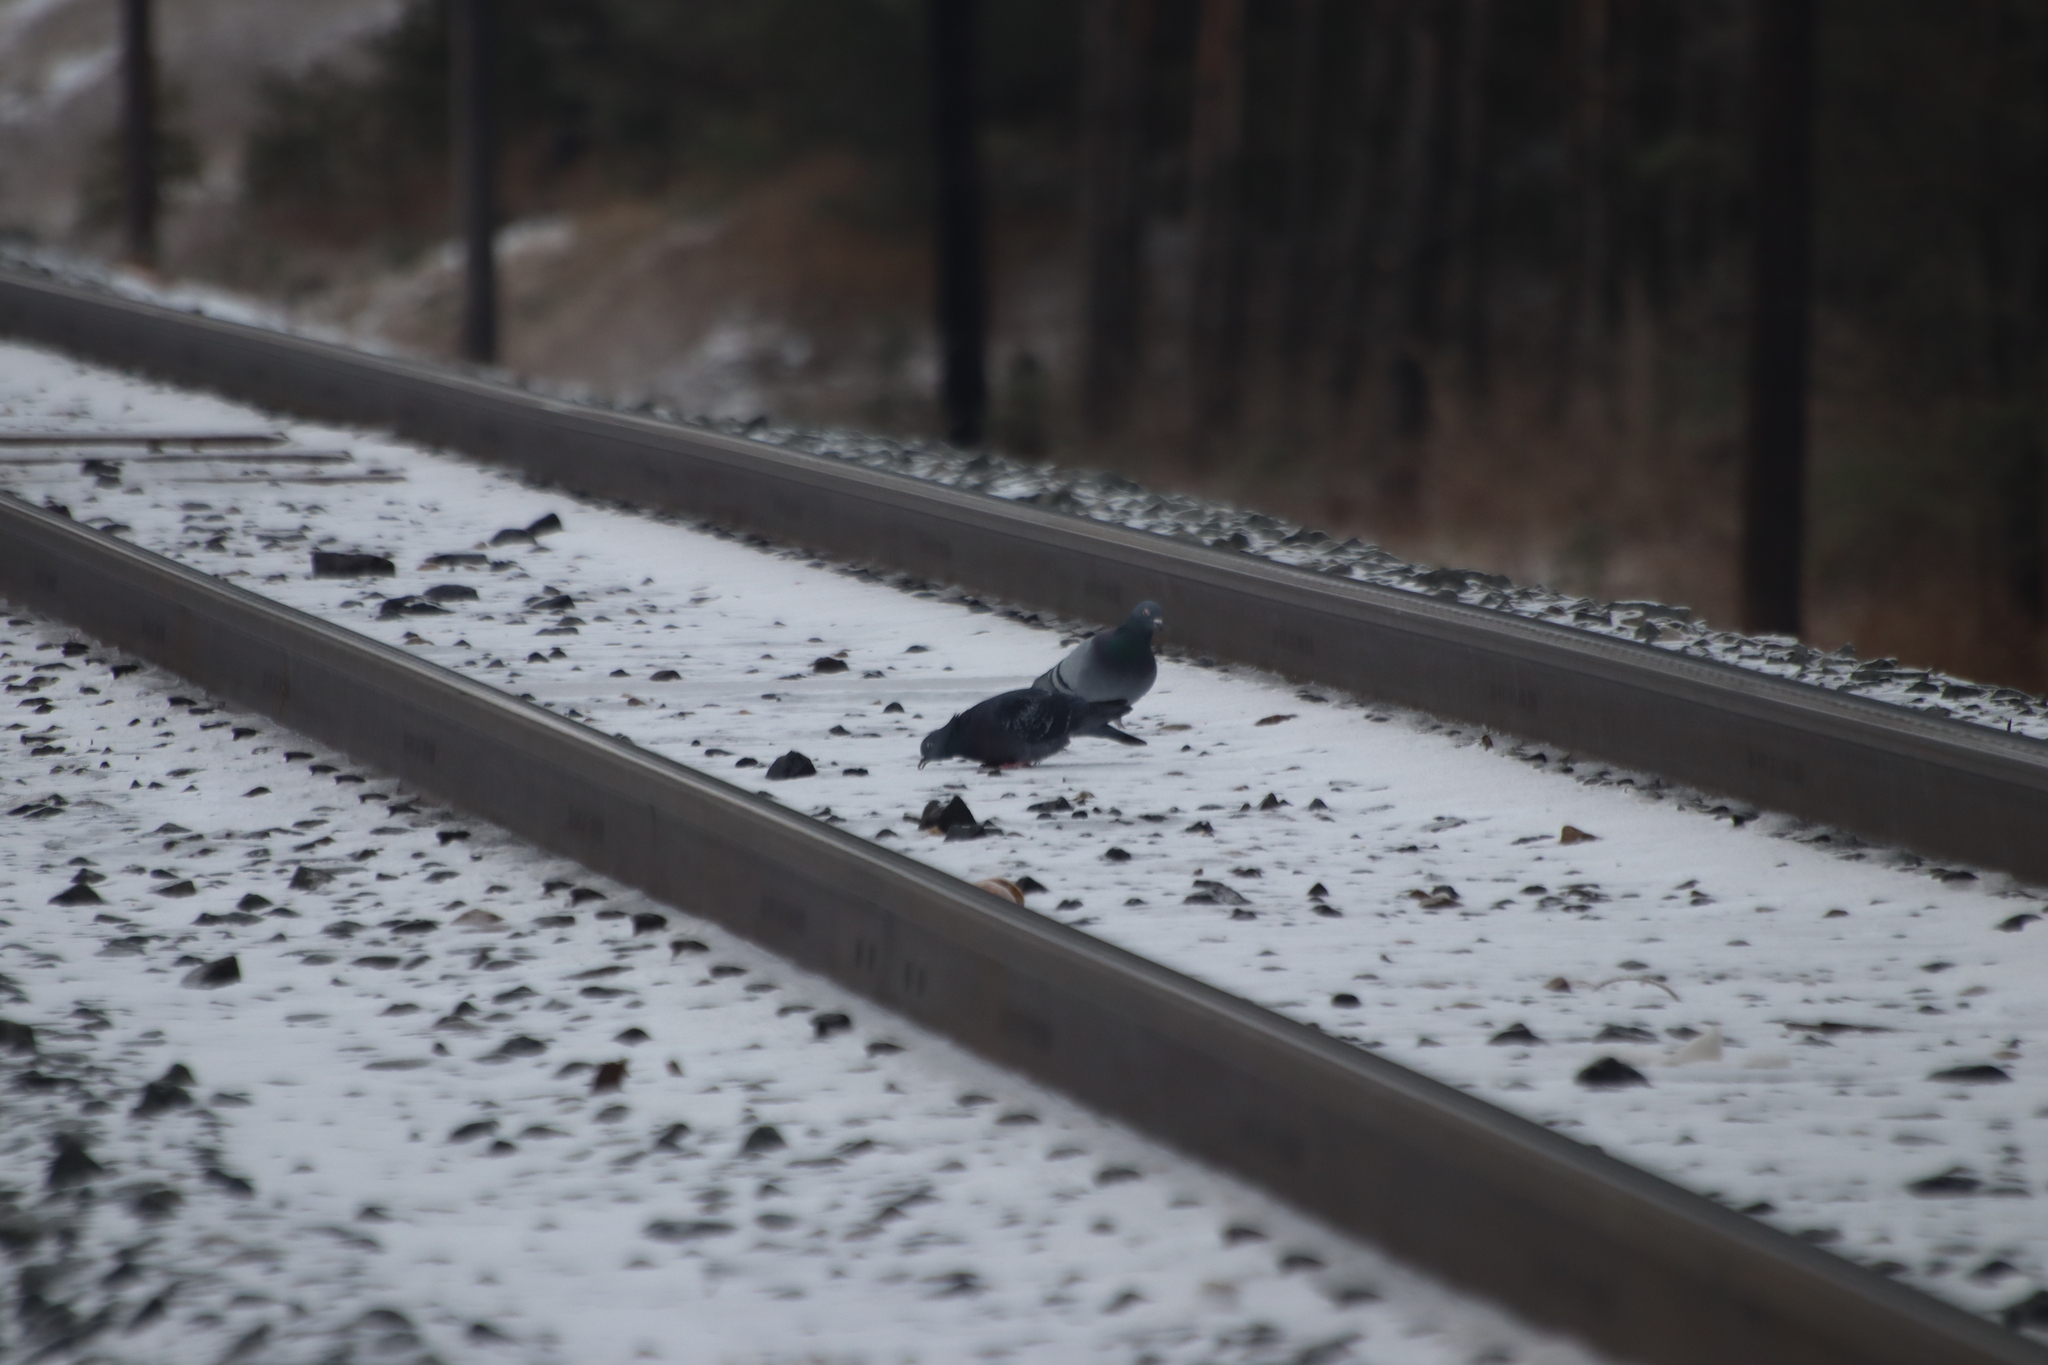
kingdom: Animalia
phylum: Chordata
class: Aves
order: Columbiformes
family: Columbidae
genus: Columba
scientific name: Columba livia
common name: Rock pigeon
